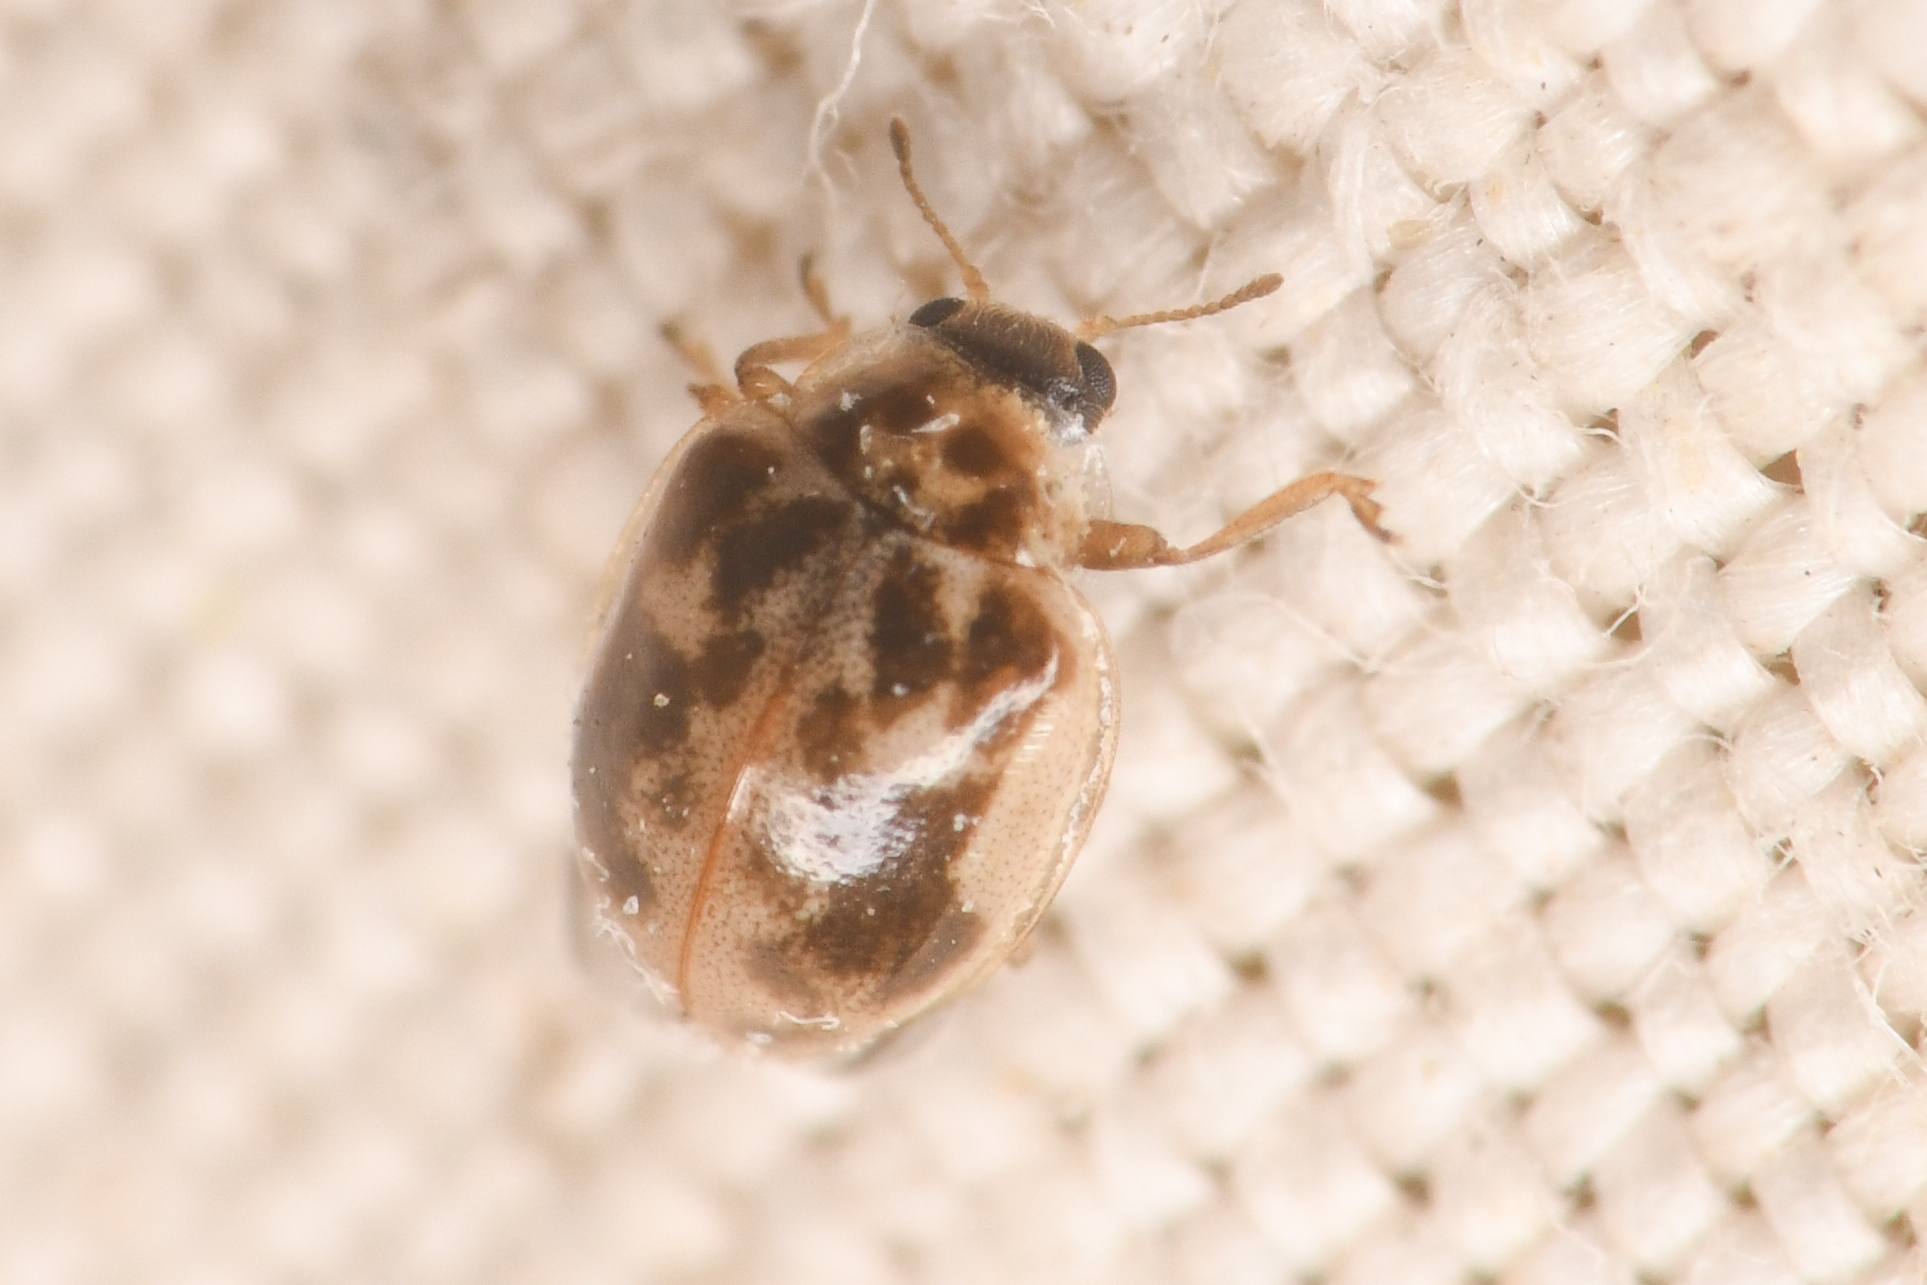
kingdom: Animalia
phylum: Arthropoda
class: Insecta
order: Coleoptera
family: Coccinellidae
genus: Psyllobora
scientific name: Psyllobora renifer
